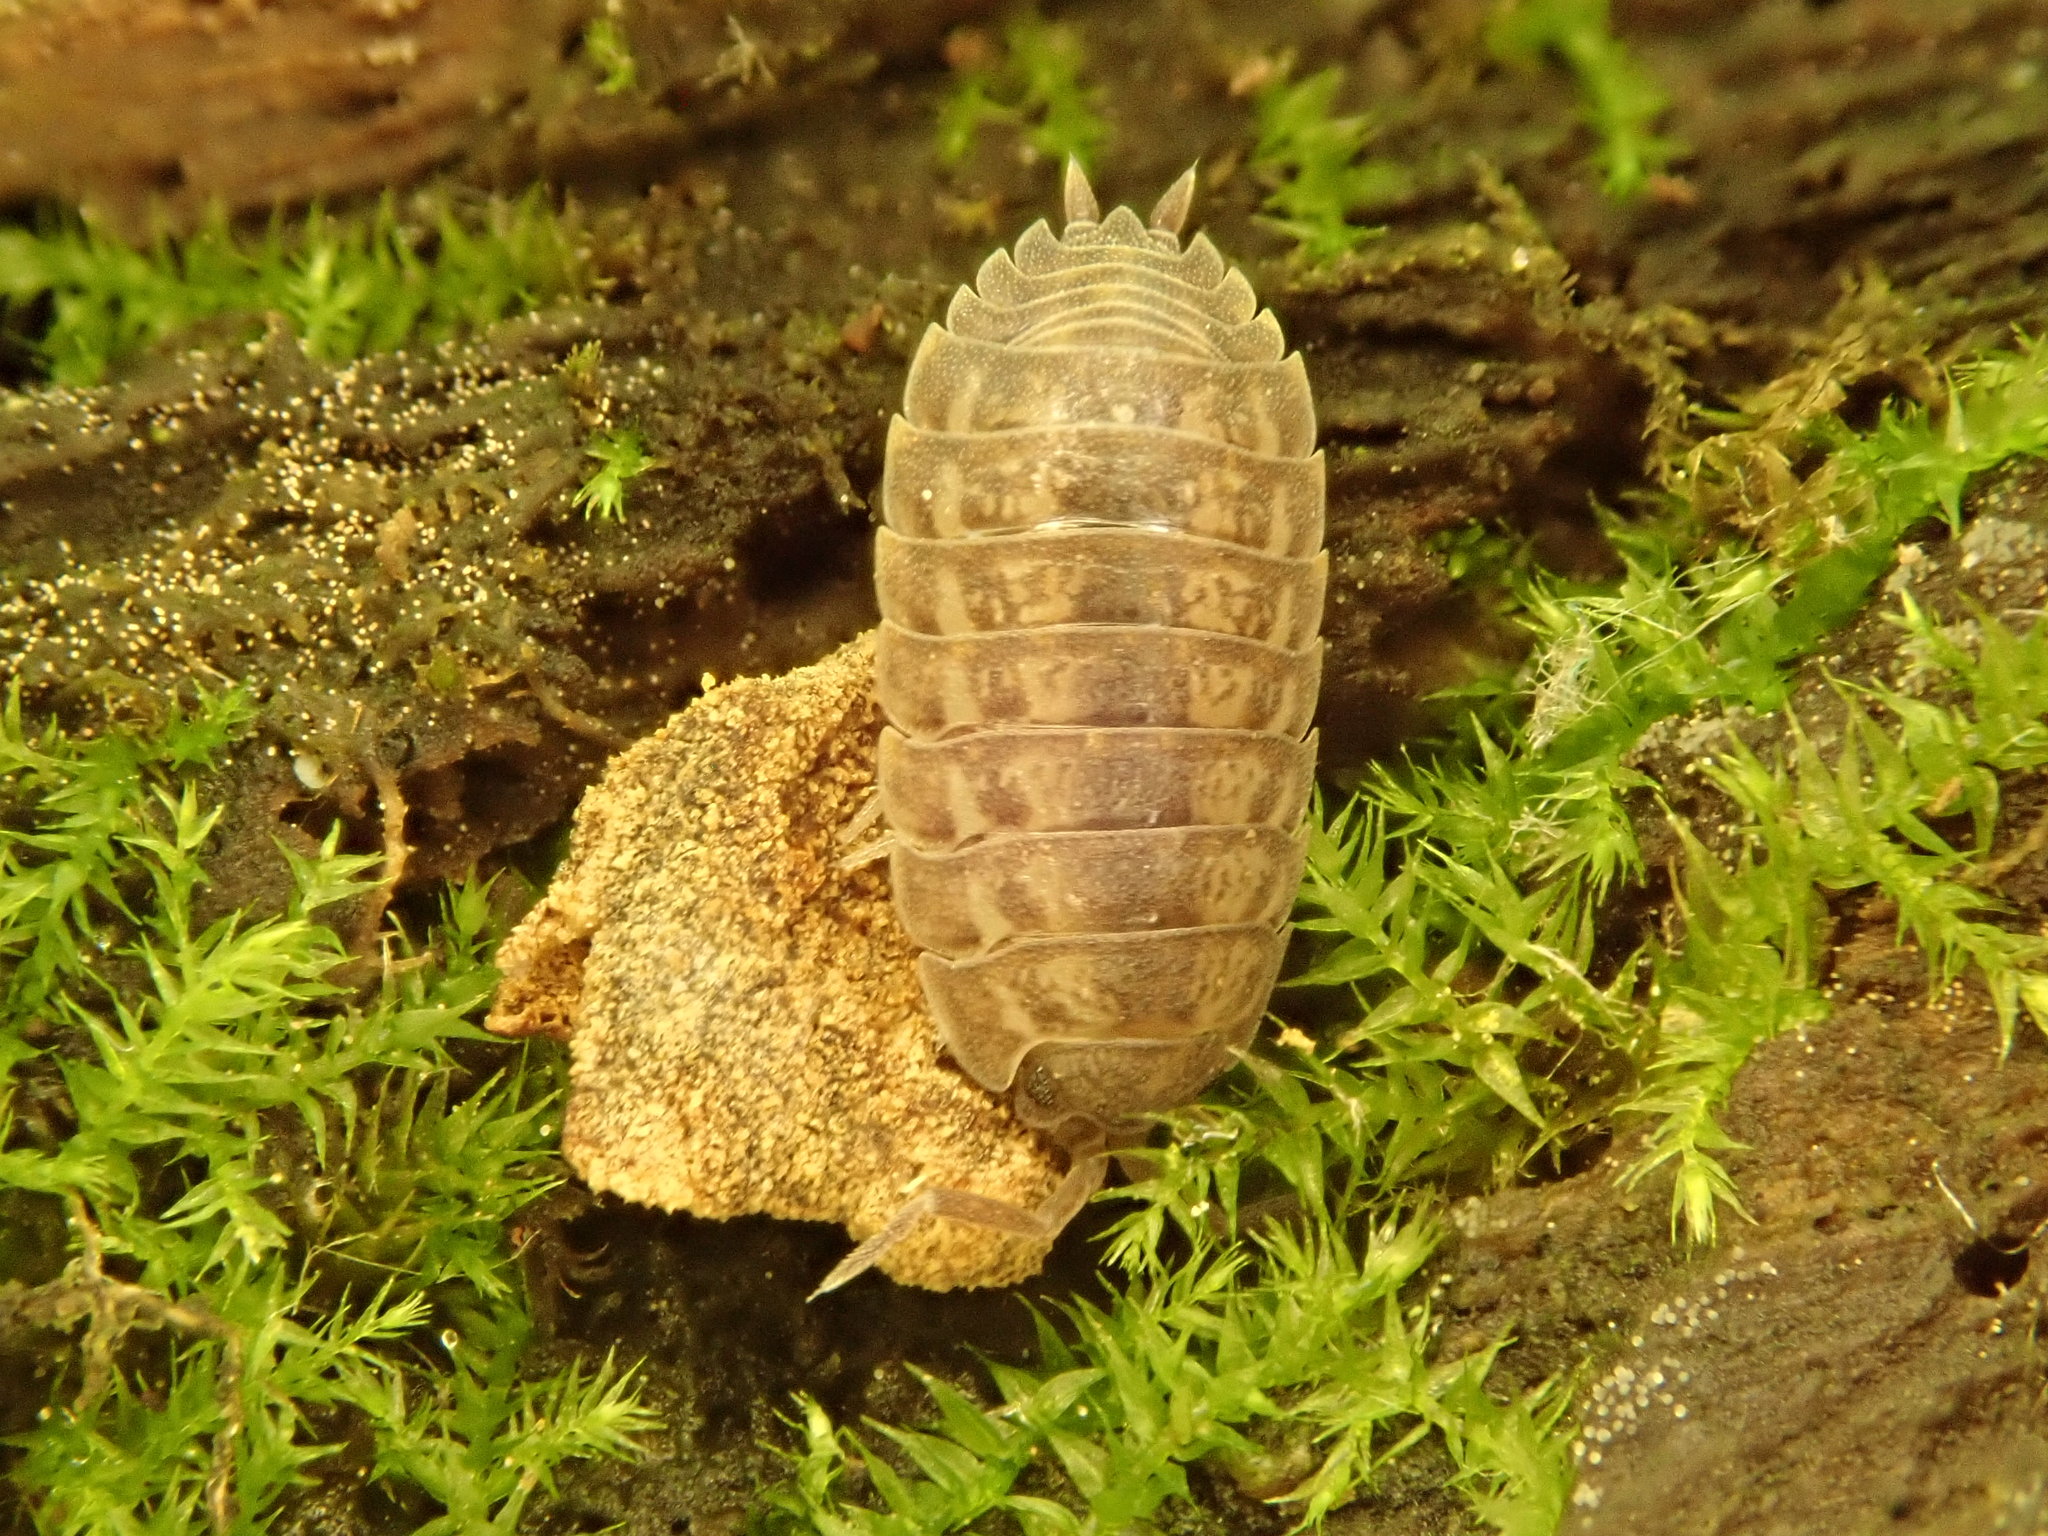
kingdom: Animalia
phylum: Arthropoda
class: Malacostraca
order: Isopoda
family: Trachelipodidae
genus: Trachelipus
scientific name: Trachelipus rathkii
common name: Isopod
